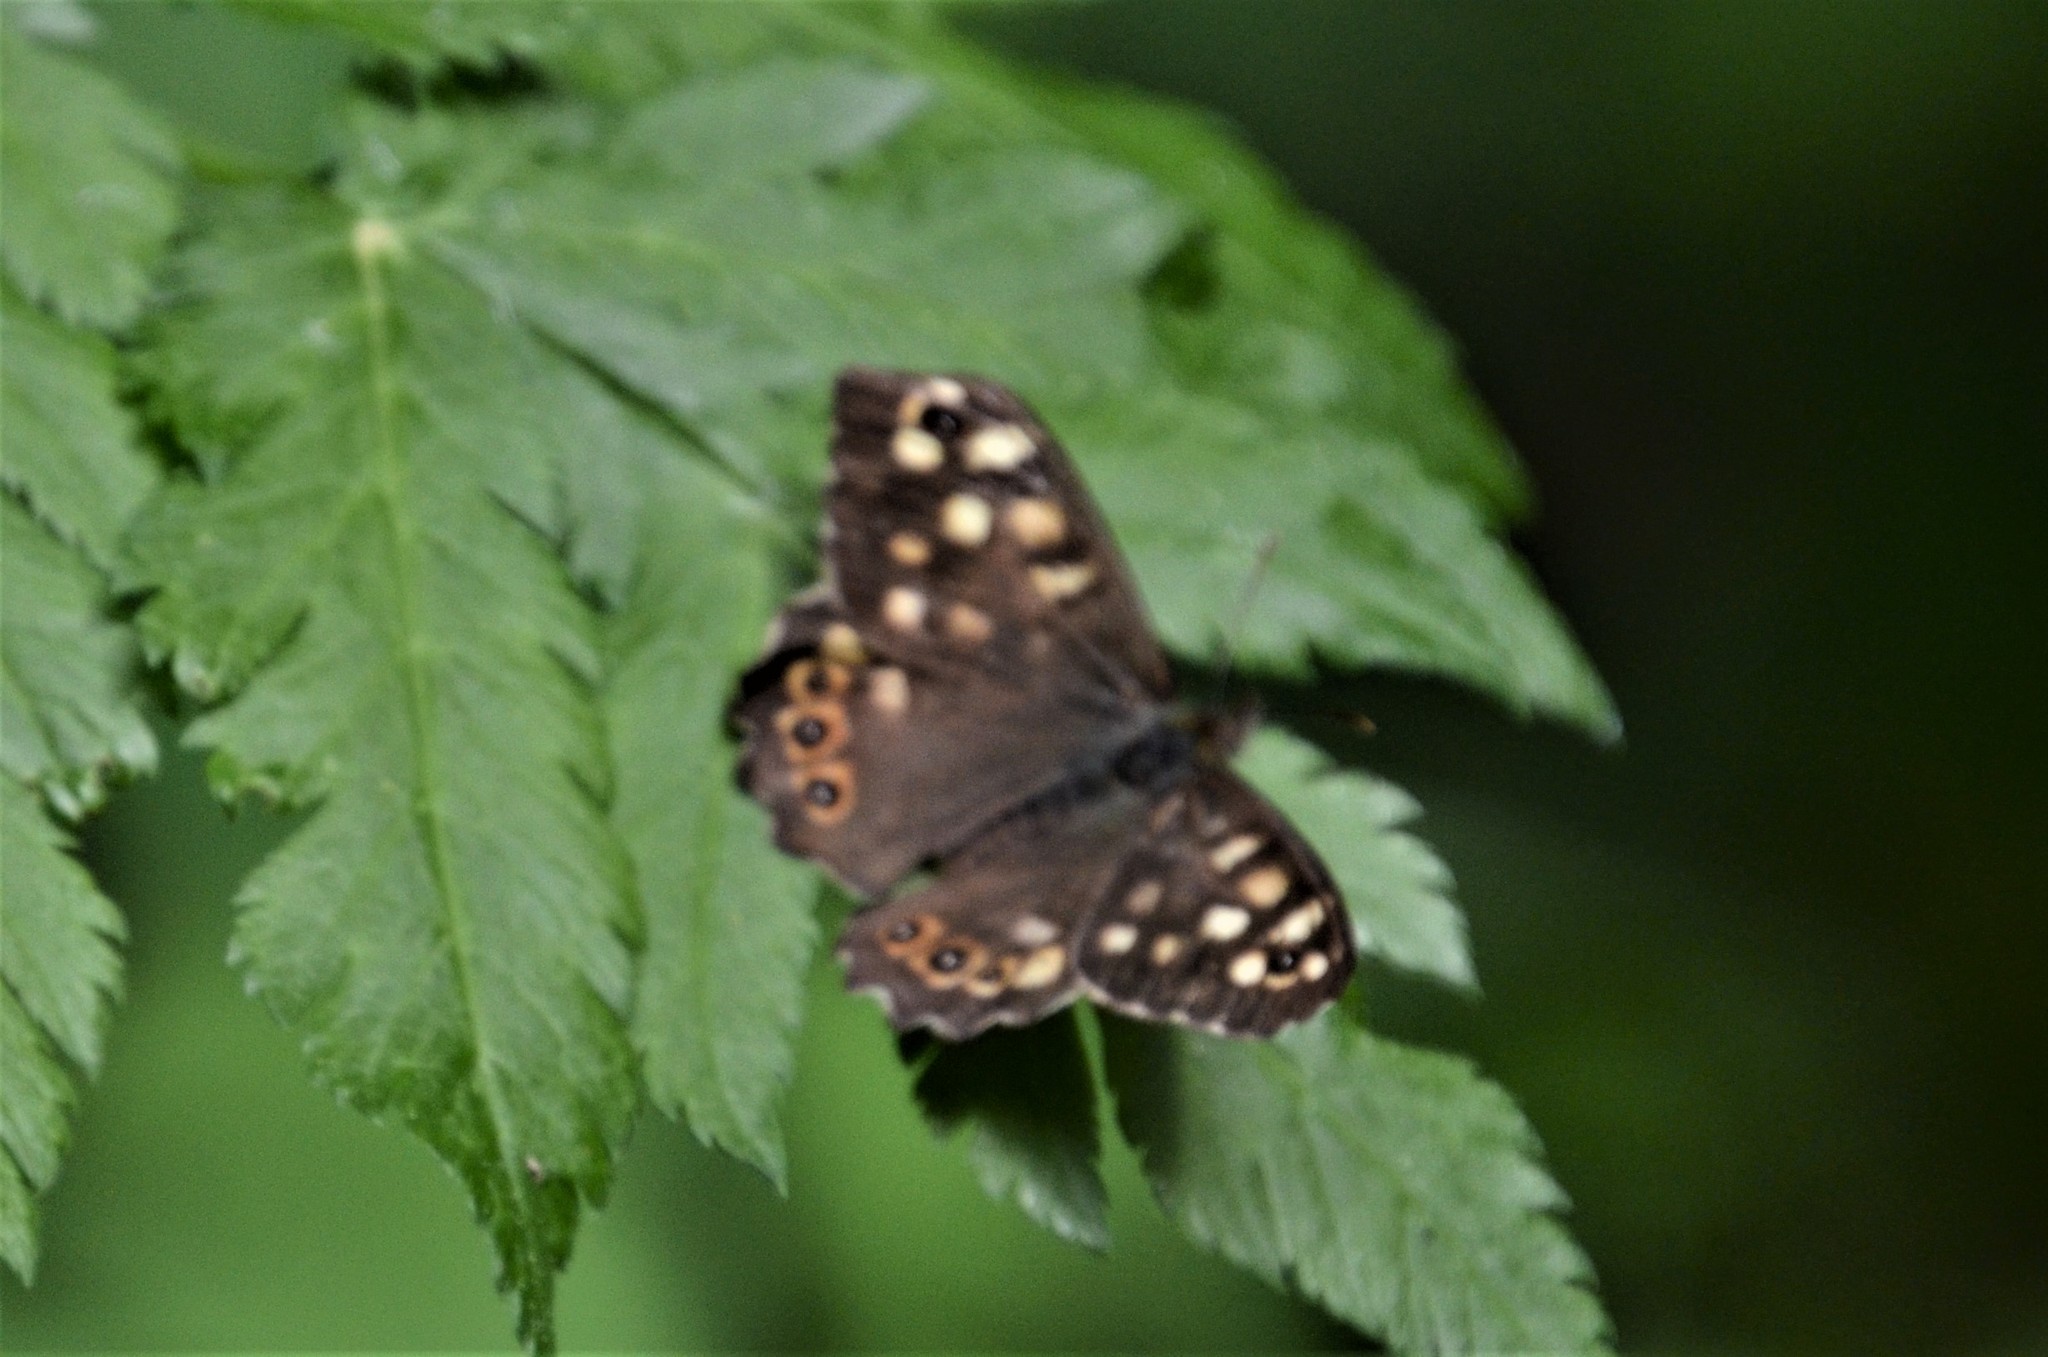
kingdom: Animalia
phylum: Arthropoda
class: Insecta
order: Lepidoptera
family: Nymphalidae
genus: Pararge
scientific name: Pararge aegeria
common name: Speckled wood
